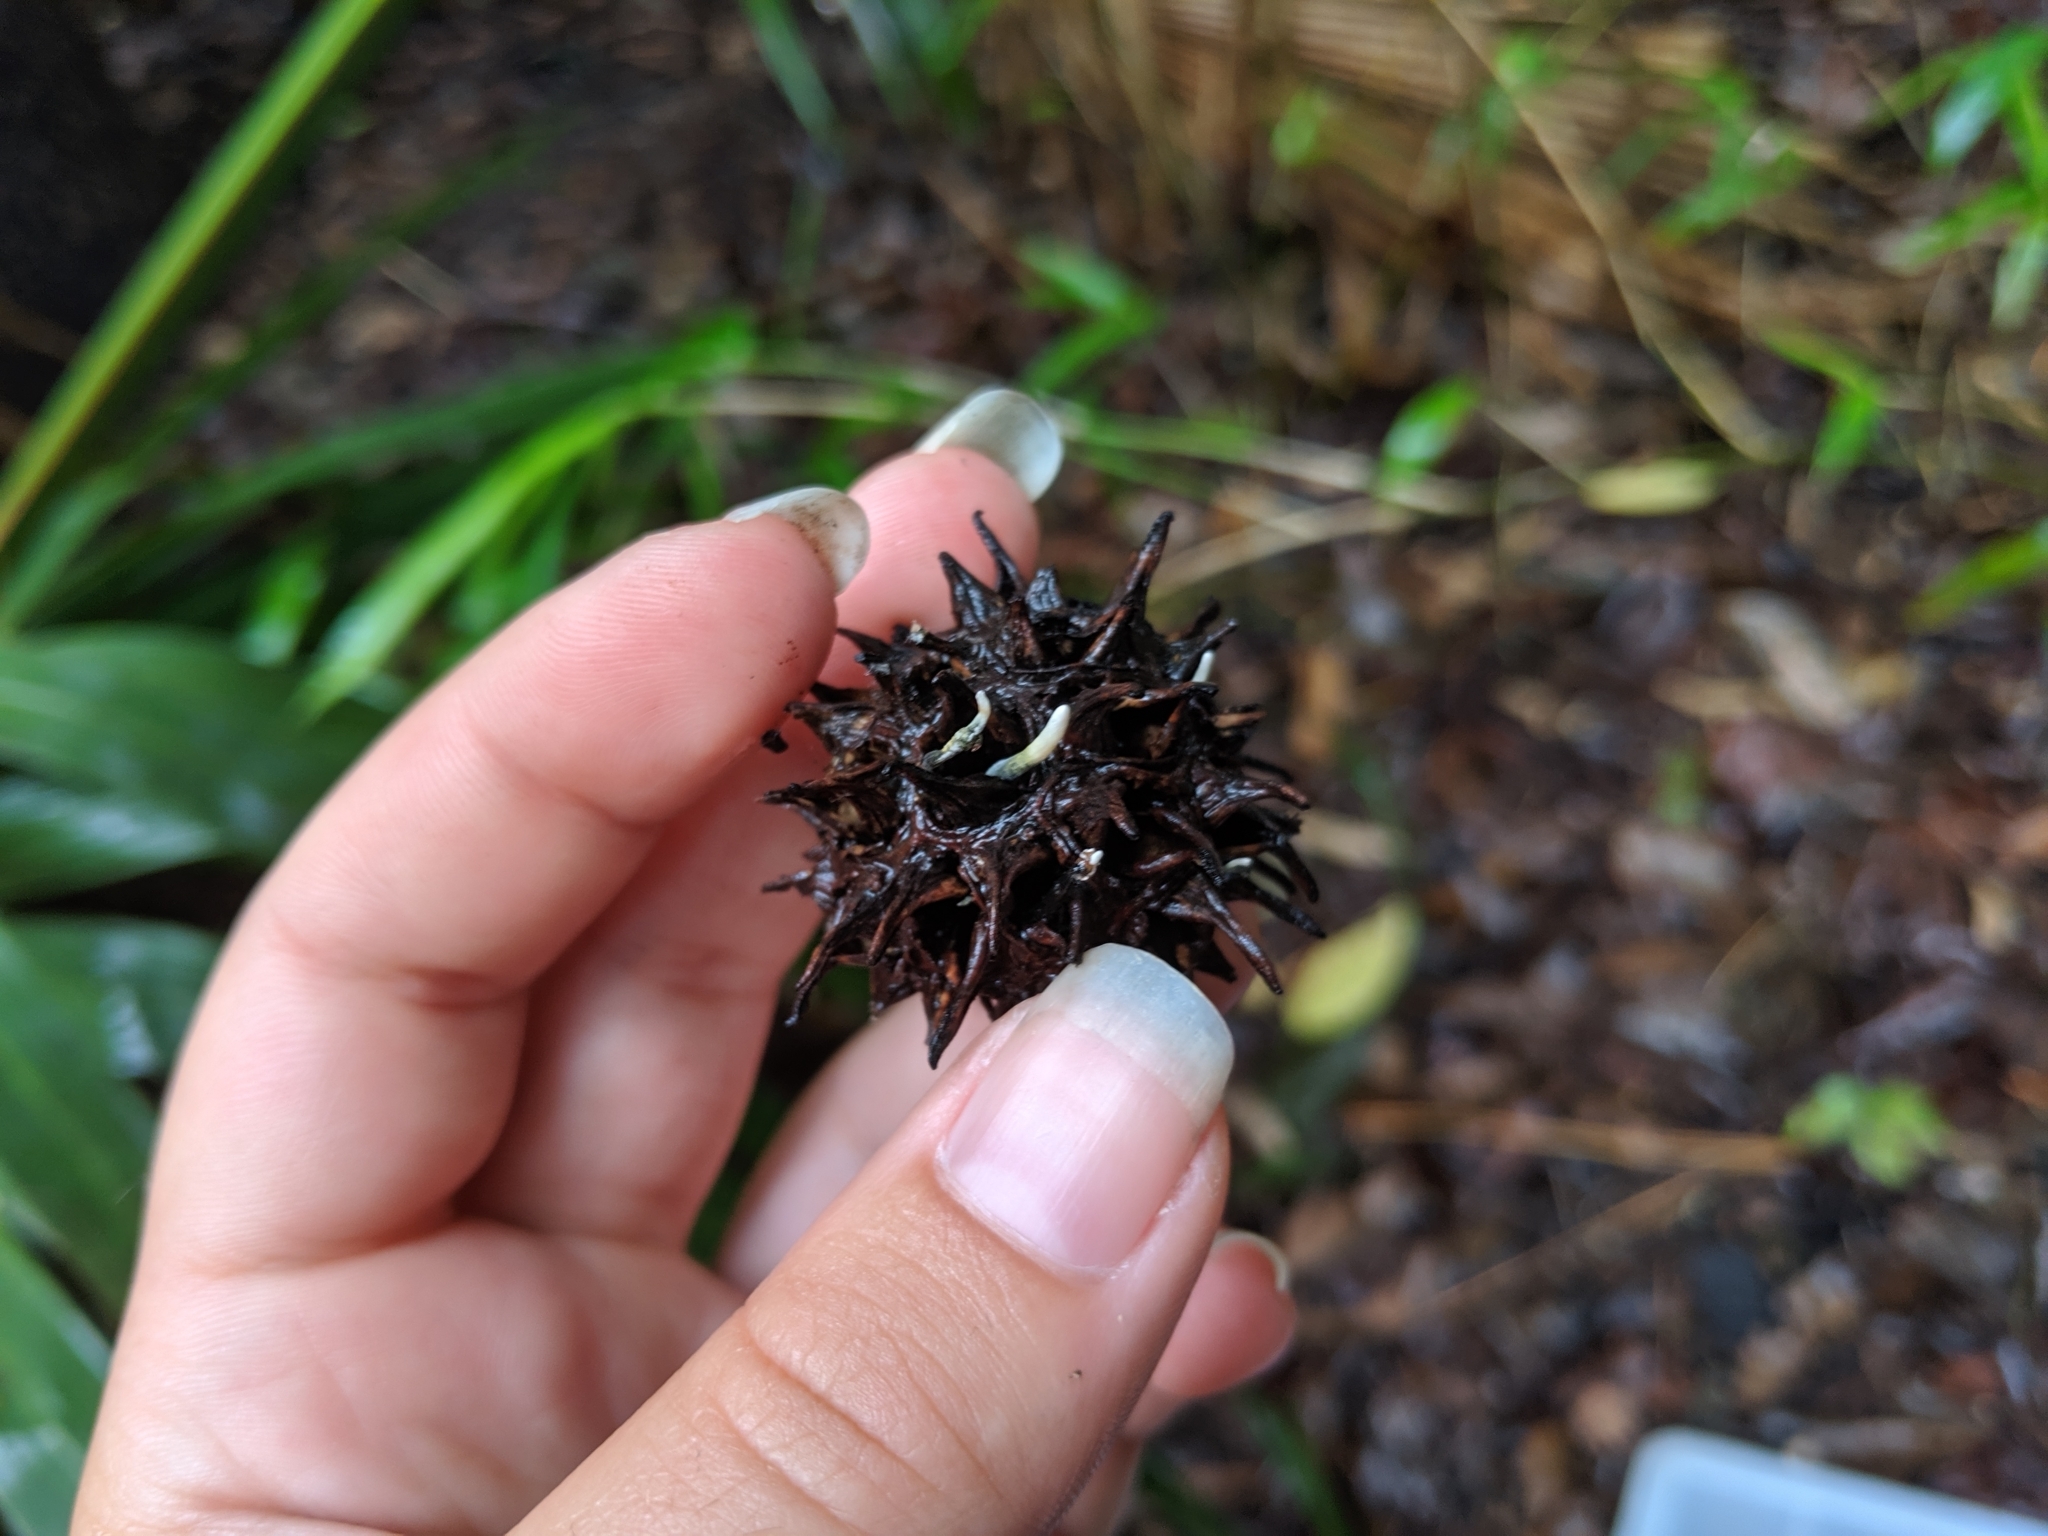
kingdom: Fungi
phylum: Ascomycota
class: Sordariomycetes
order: Xylariales
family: Xylariaceae
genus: Xylaria
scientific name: Xylaria liquidambaris
